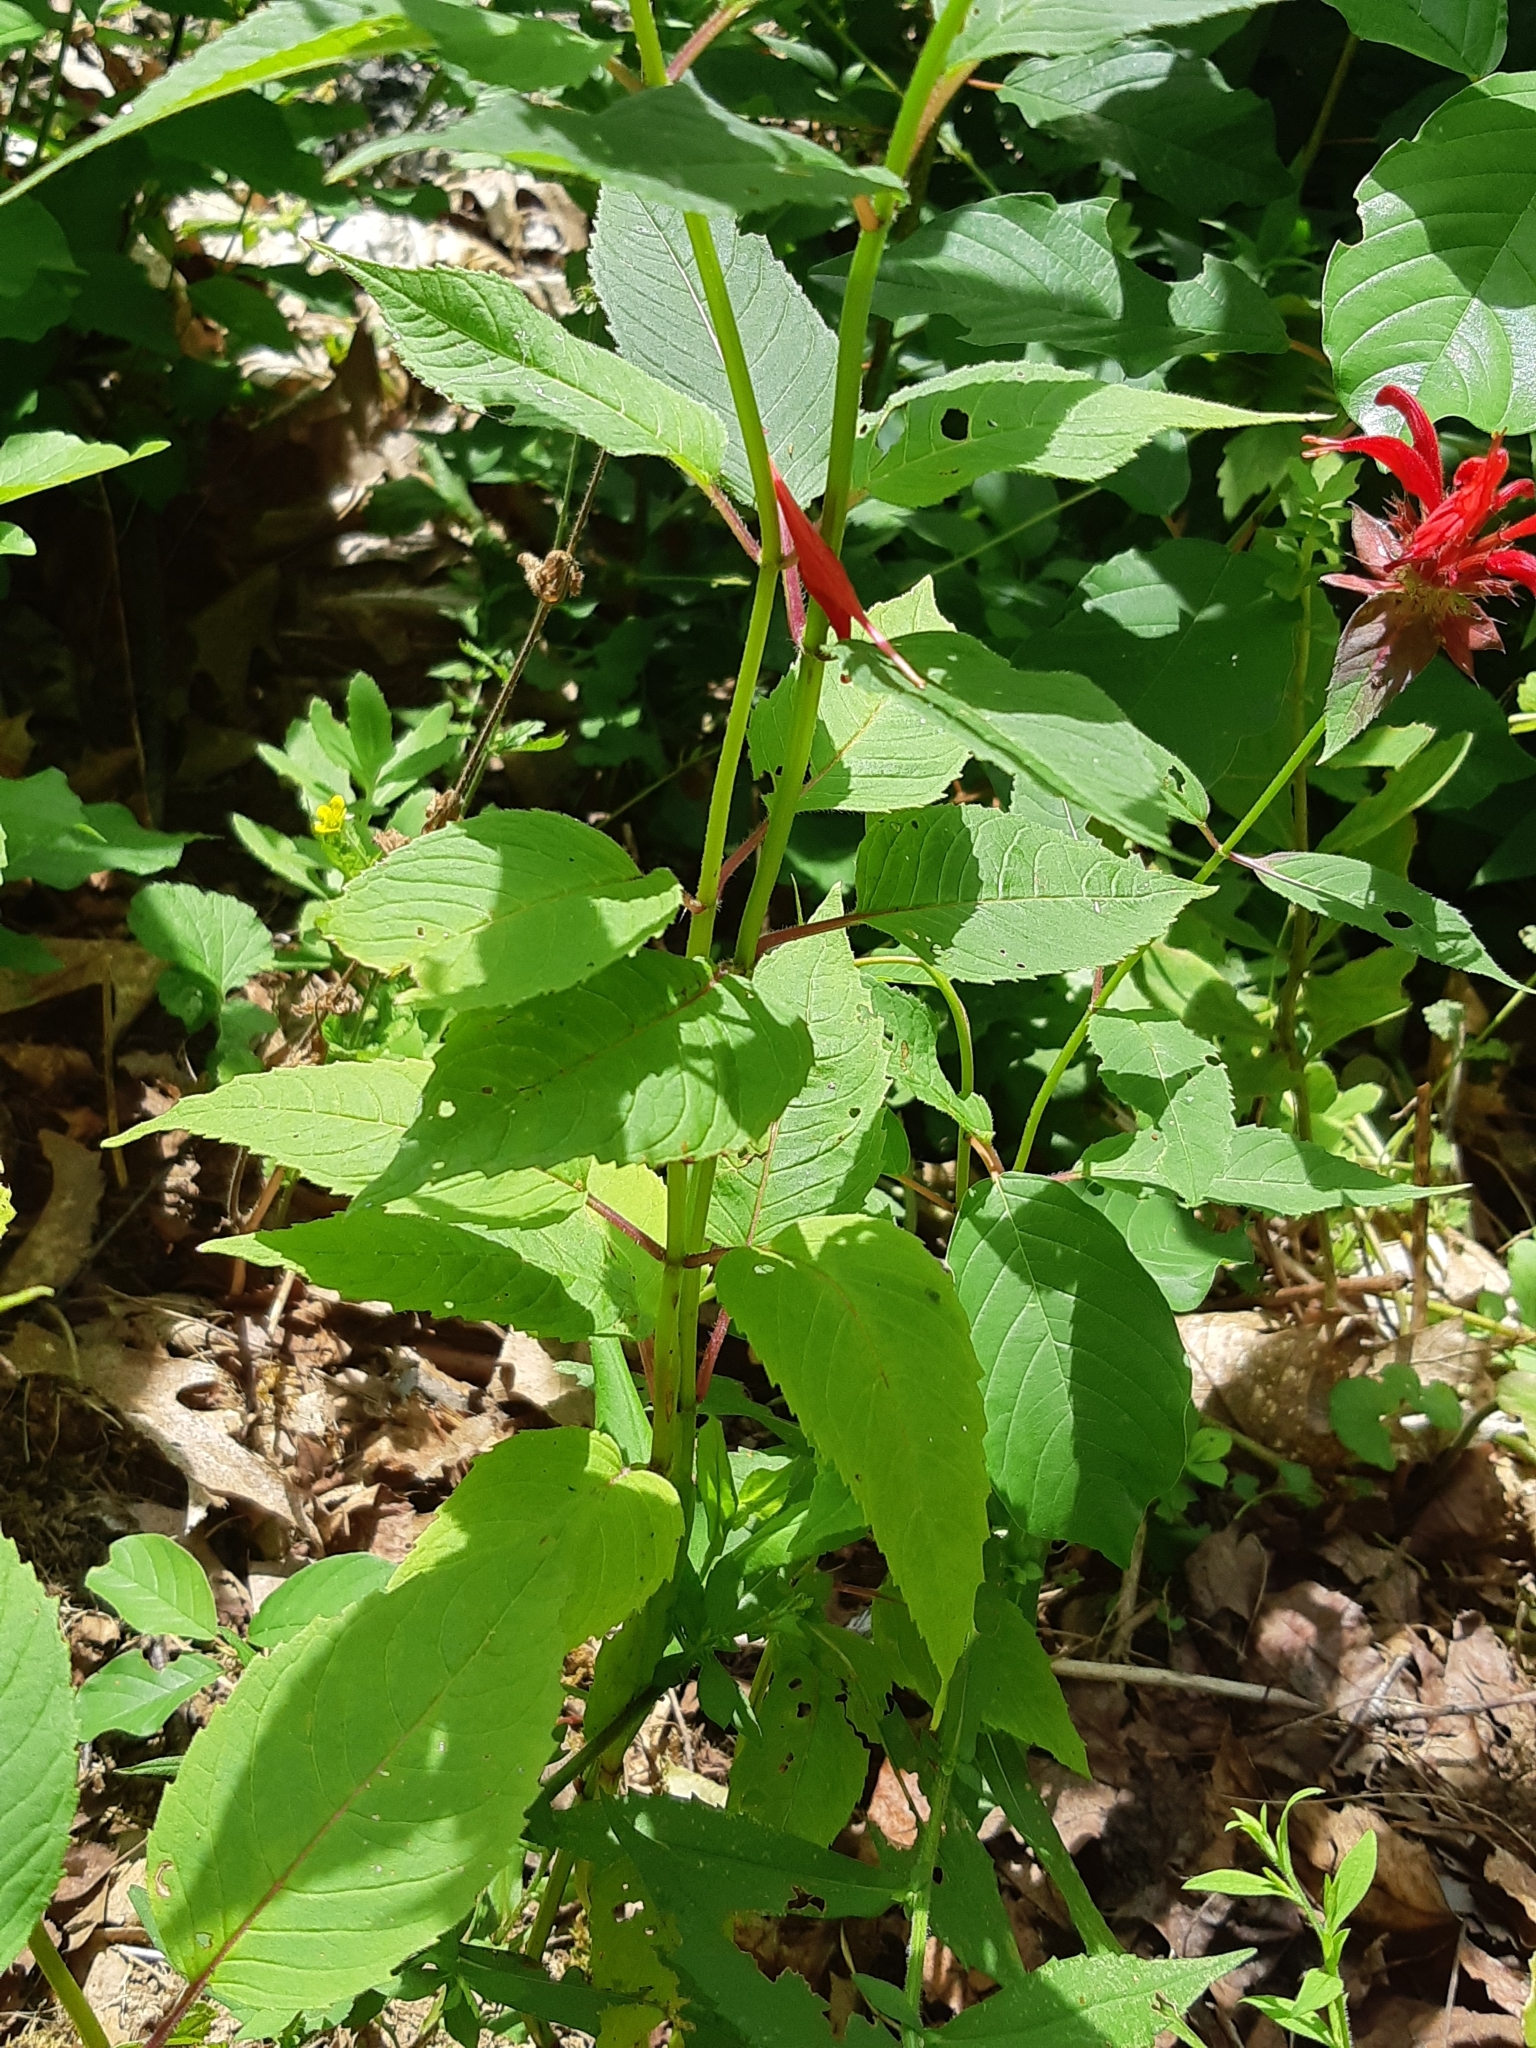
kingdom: Plantae
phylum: Tracheophyta
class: Magnoliopsida
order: Lamiales
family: Lamiaceae
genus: Monarda
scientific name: Monarda didyma
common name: Beebalm
